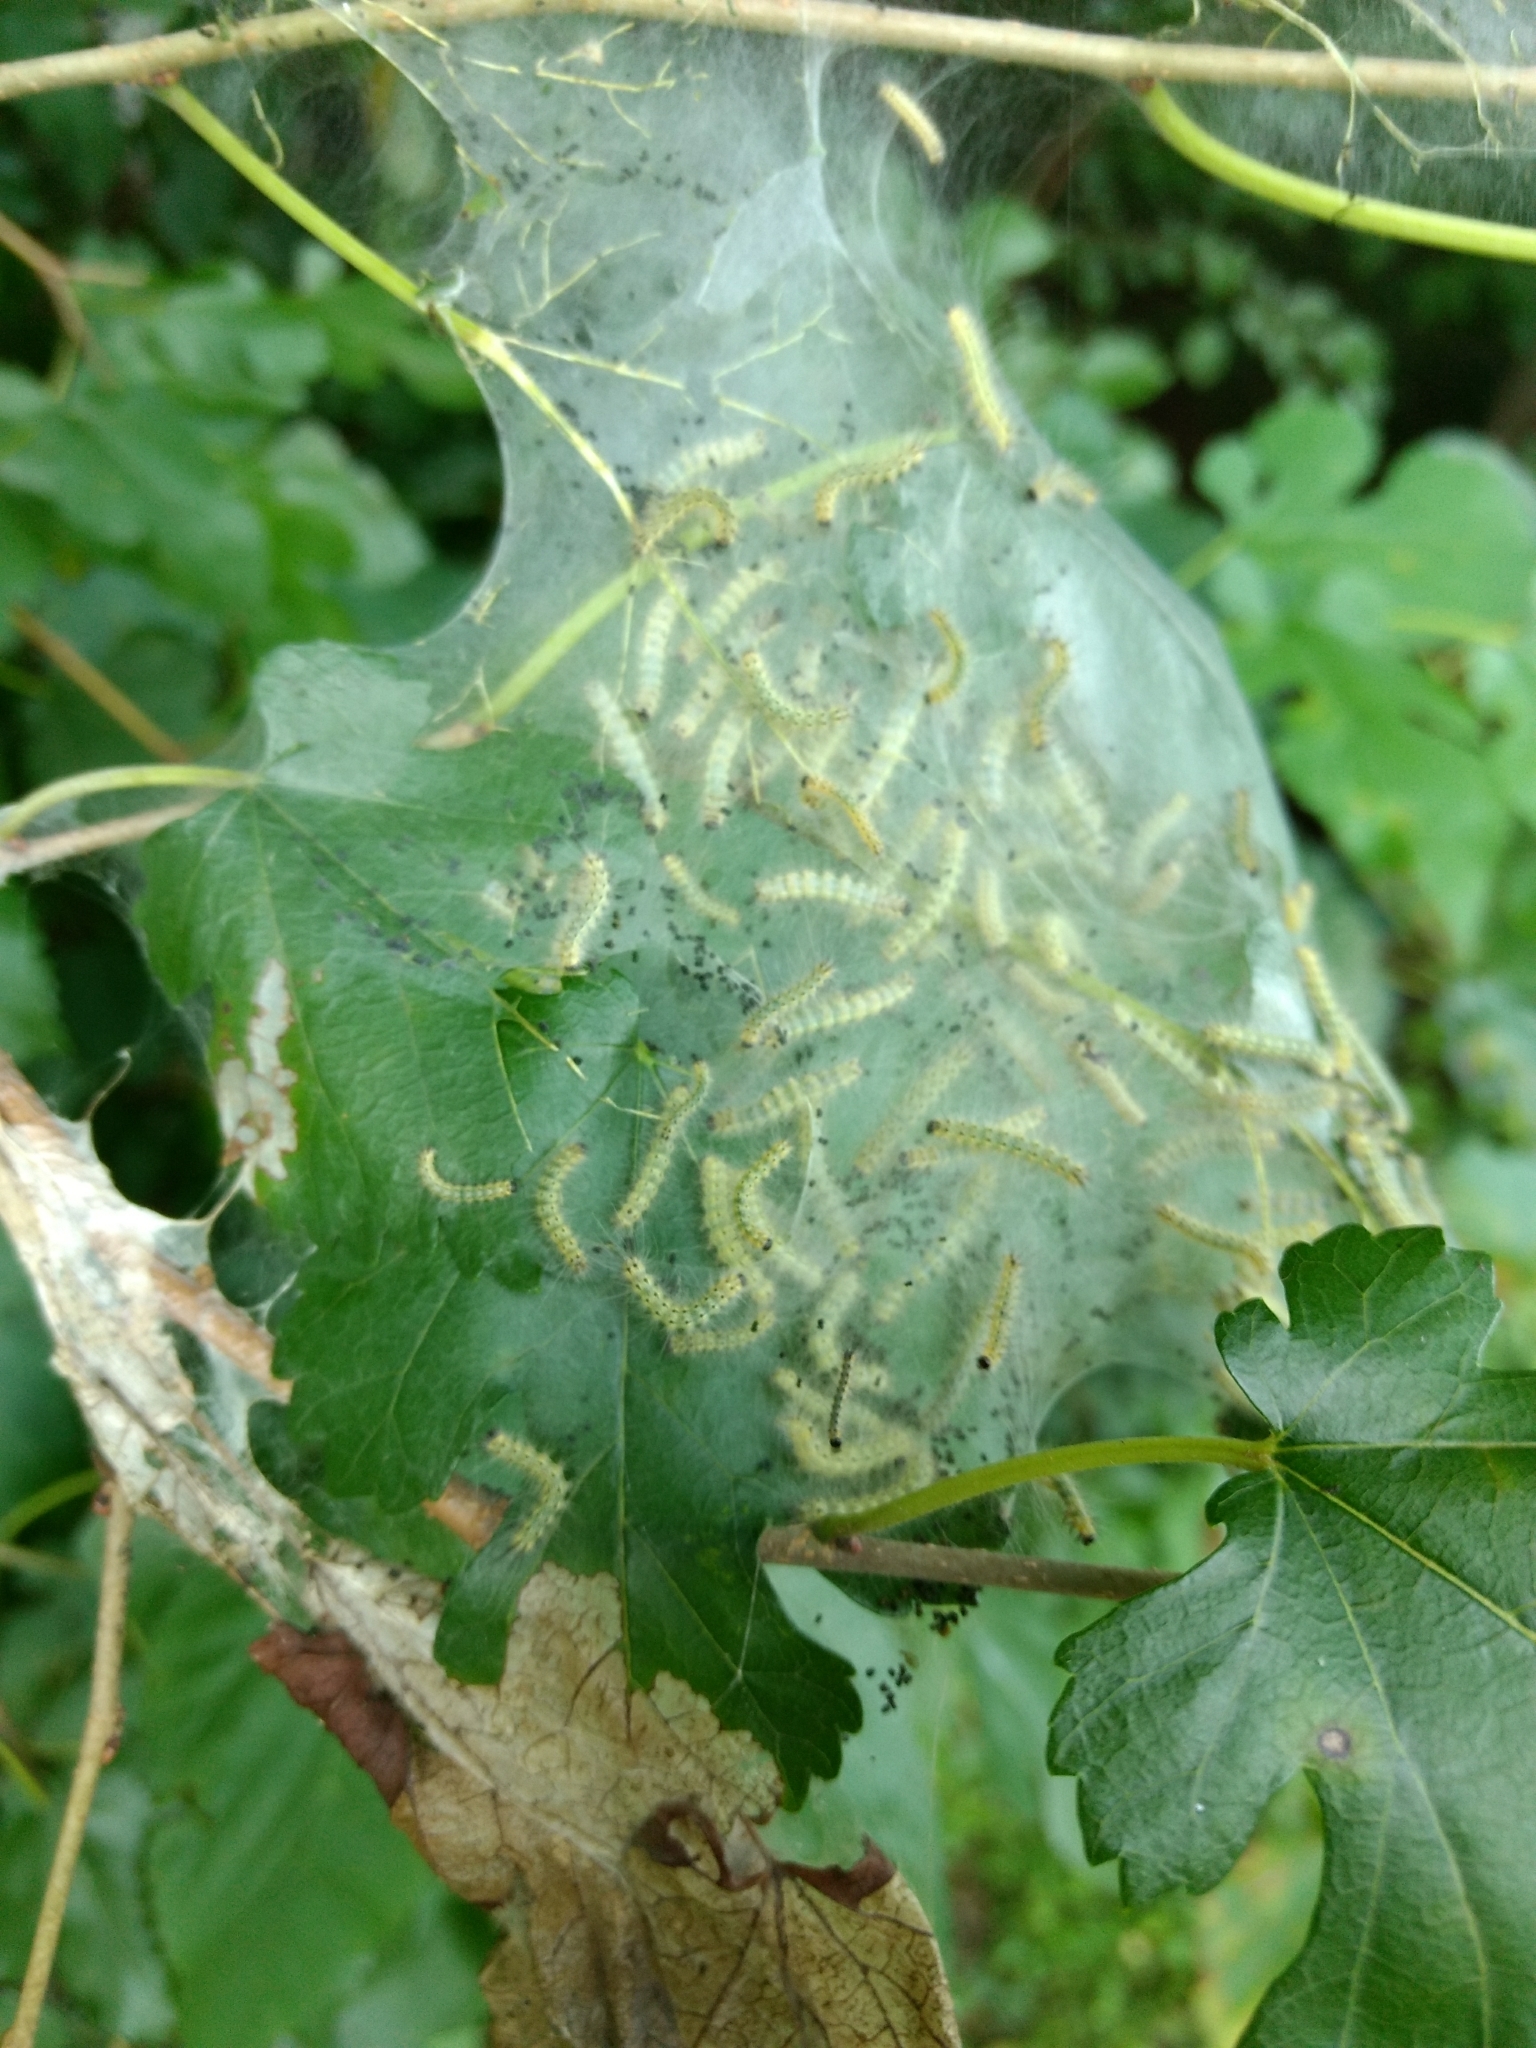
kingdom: Animalia
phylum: Arthropoda
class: Insecta
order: Lepidoptera
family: Erebidae
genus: Hyphantria
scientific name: Hyphantria cunea
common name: American white moth
